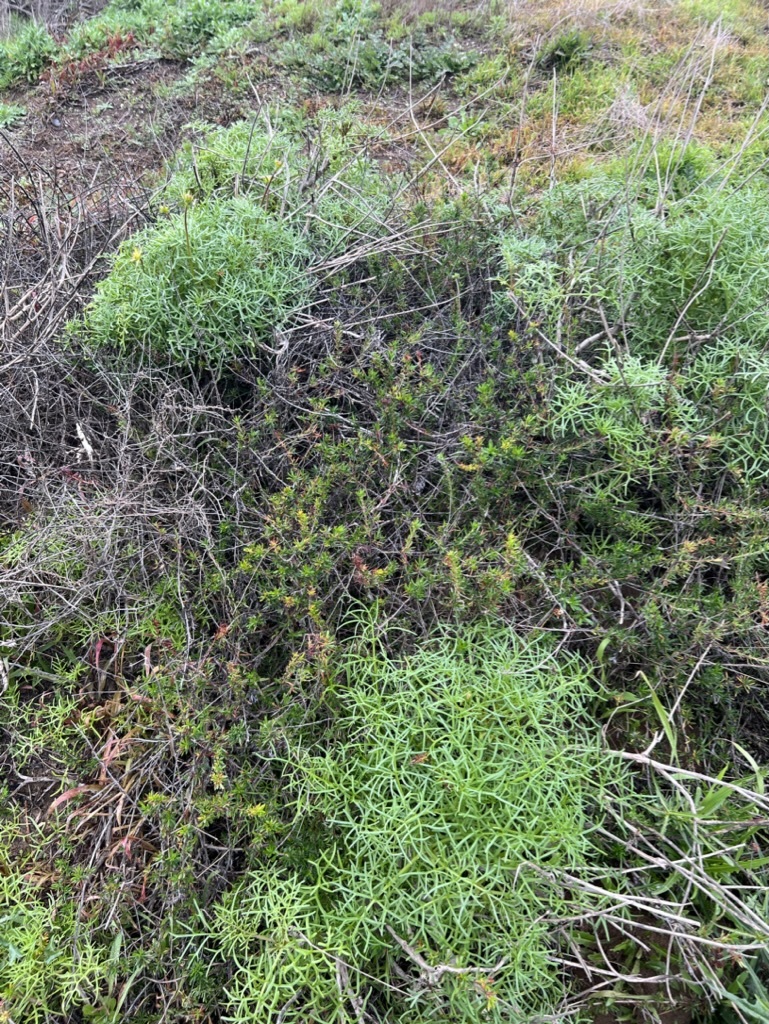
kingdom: Plantae
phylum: Tracheophyta
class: Magnoliopsida
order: Asterales
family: Asteraceae
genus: Coreopsis
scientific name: Coreopsis maritima
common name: Sea-dahlia
